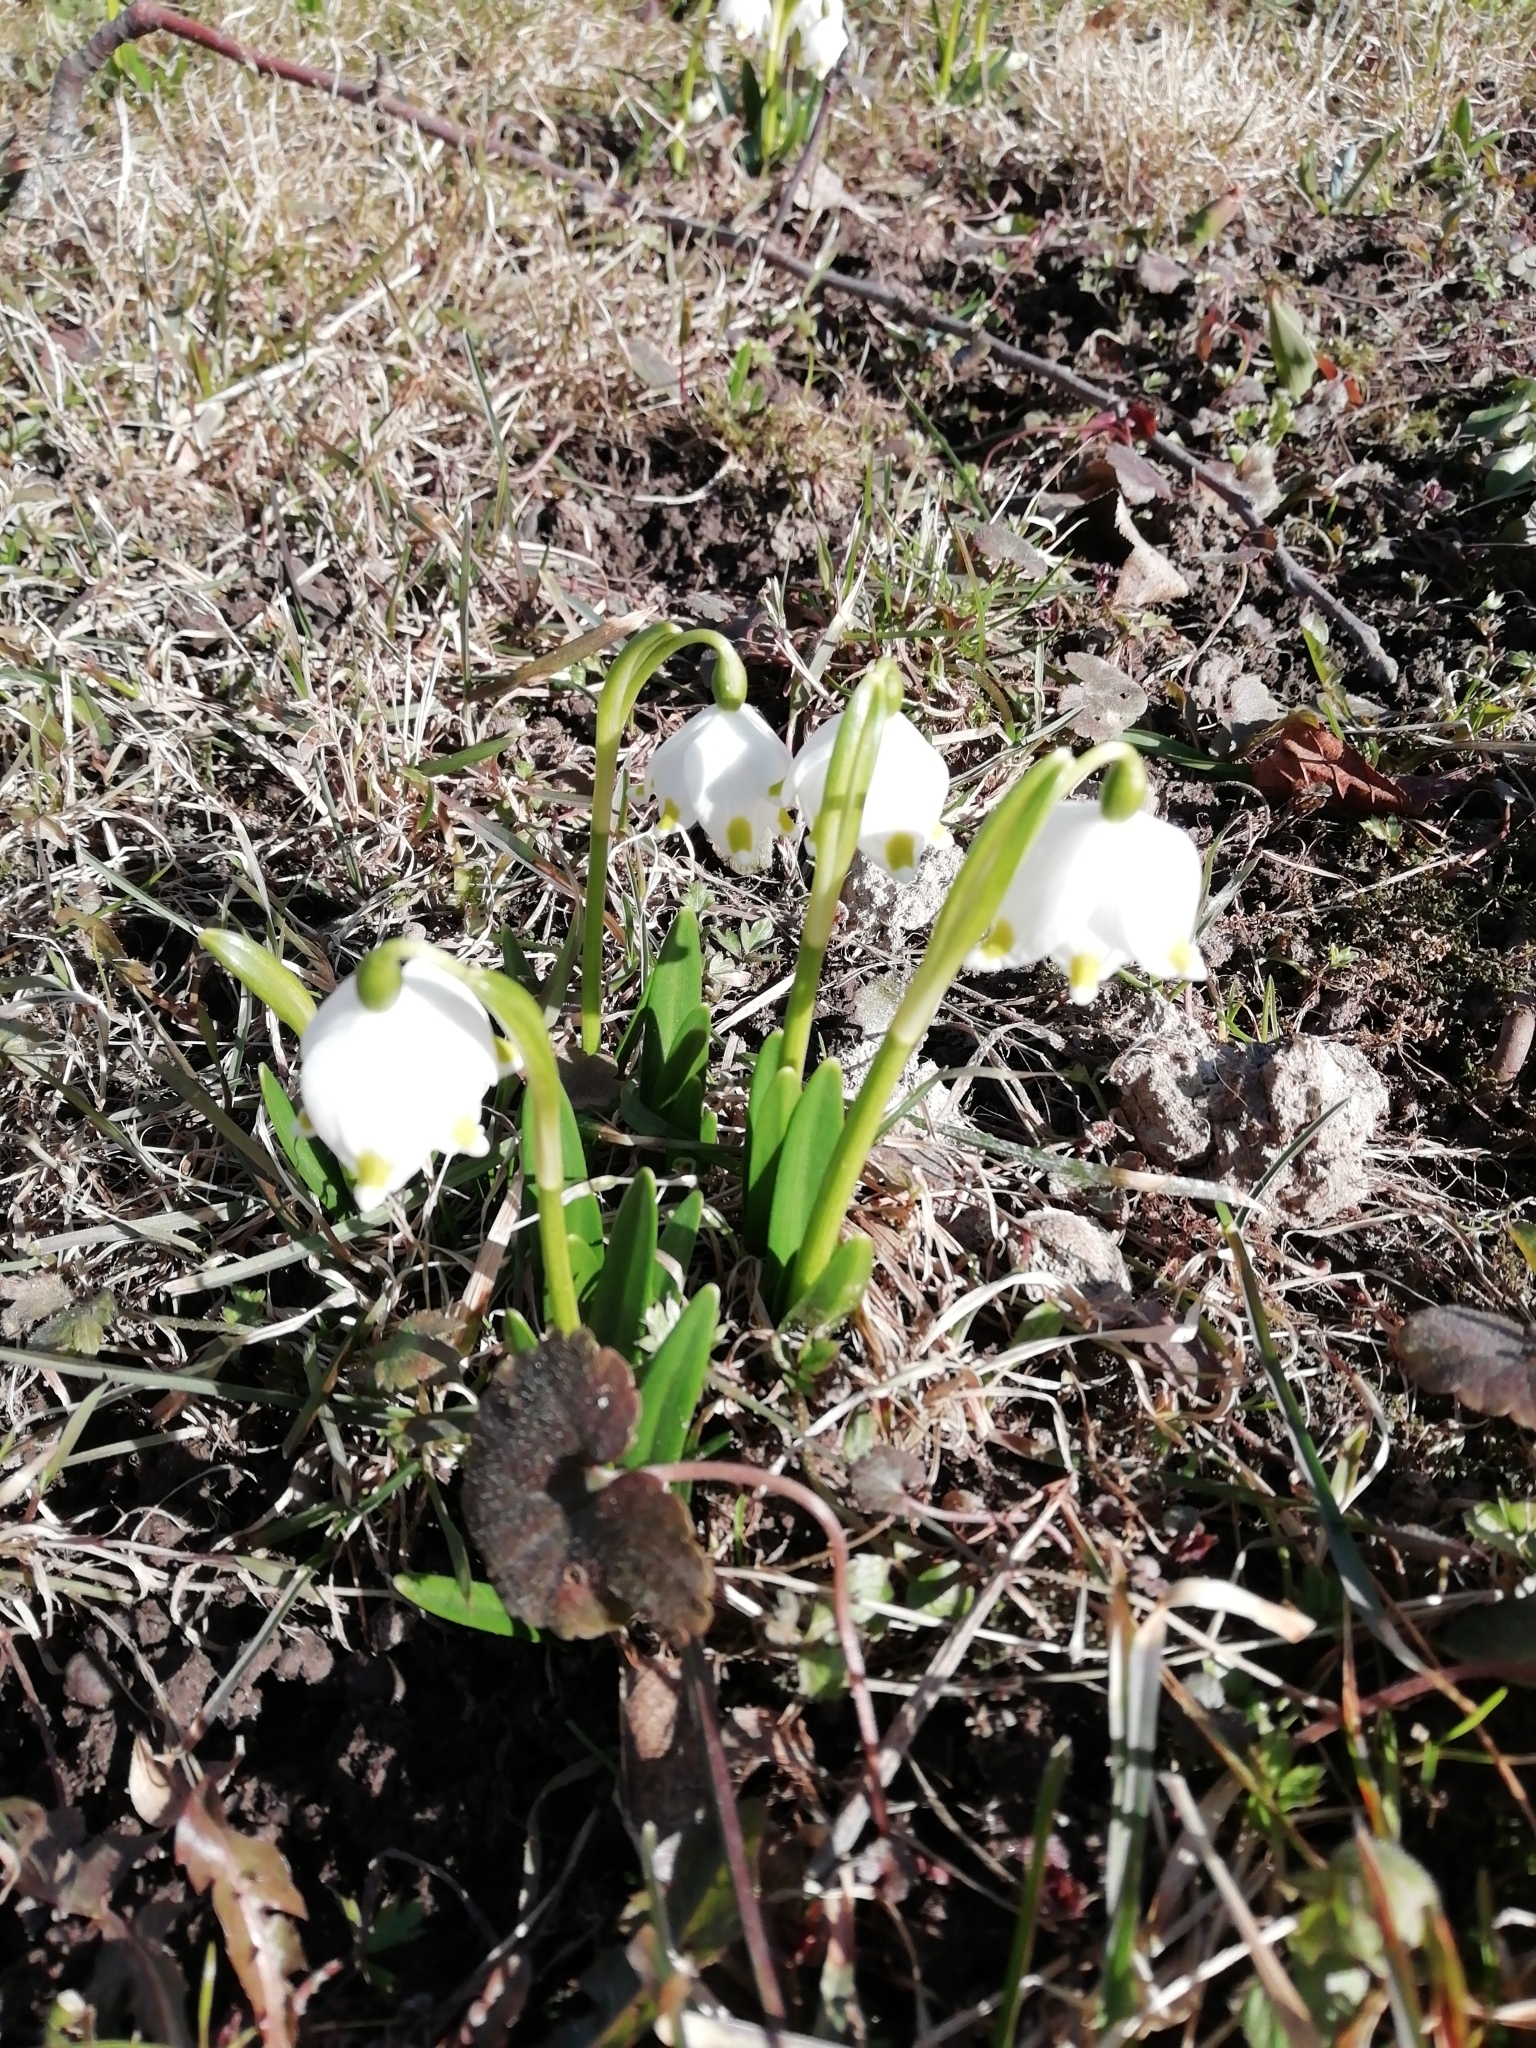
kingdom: Plantae
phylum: Tracheophyta
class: Liliopsida
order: Asparagales
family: Amaryllidaceae
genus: Leucojum
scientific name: Leucojum vernum
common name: Spring snowflake
